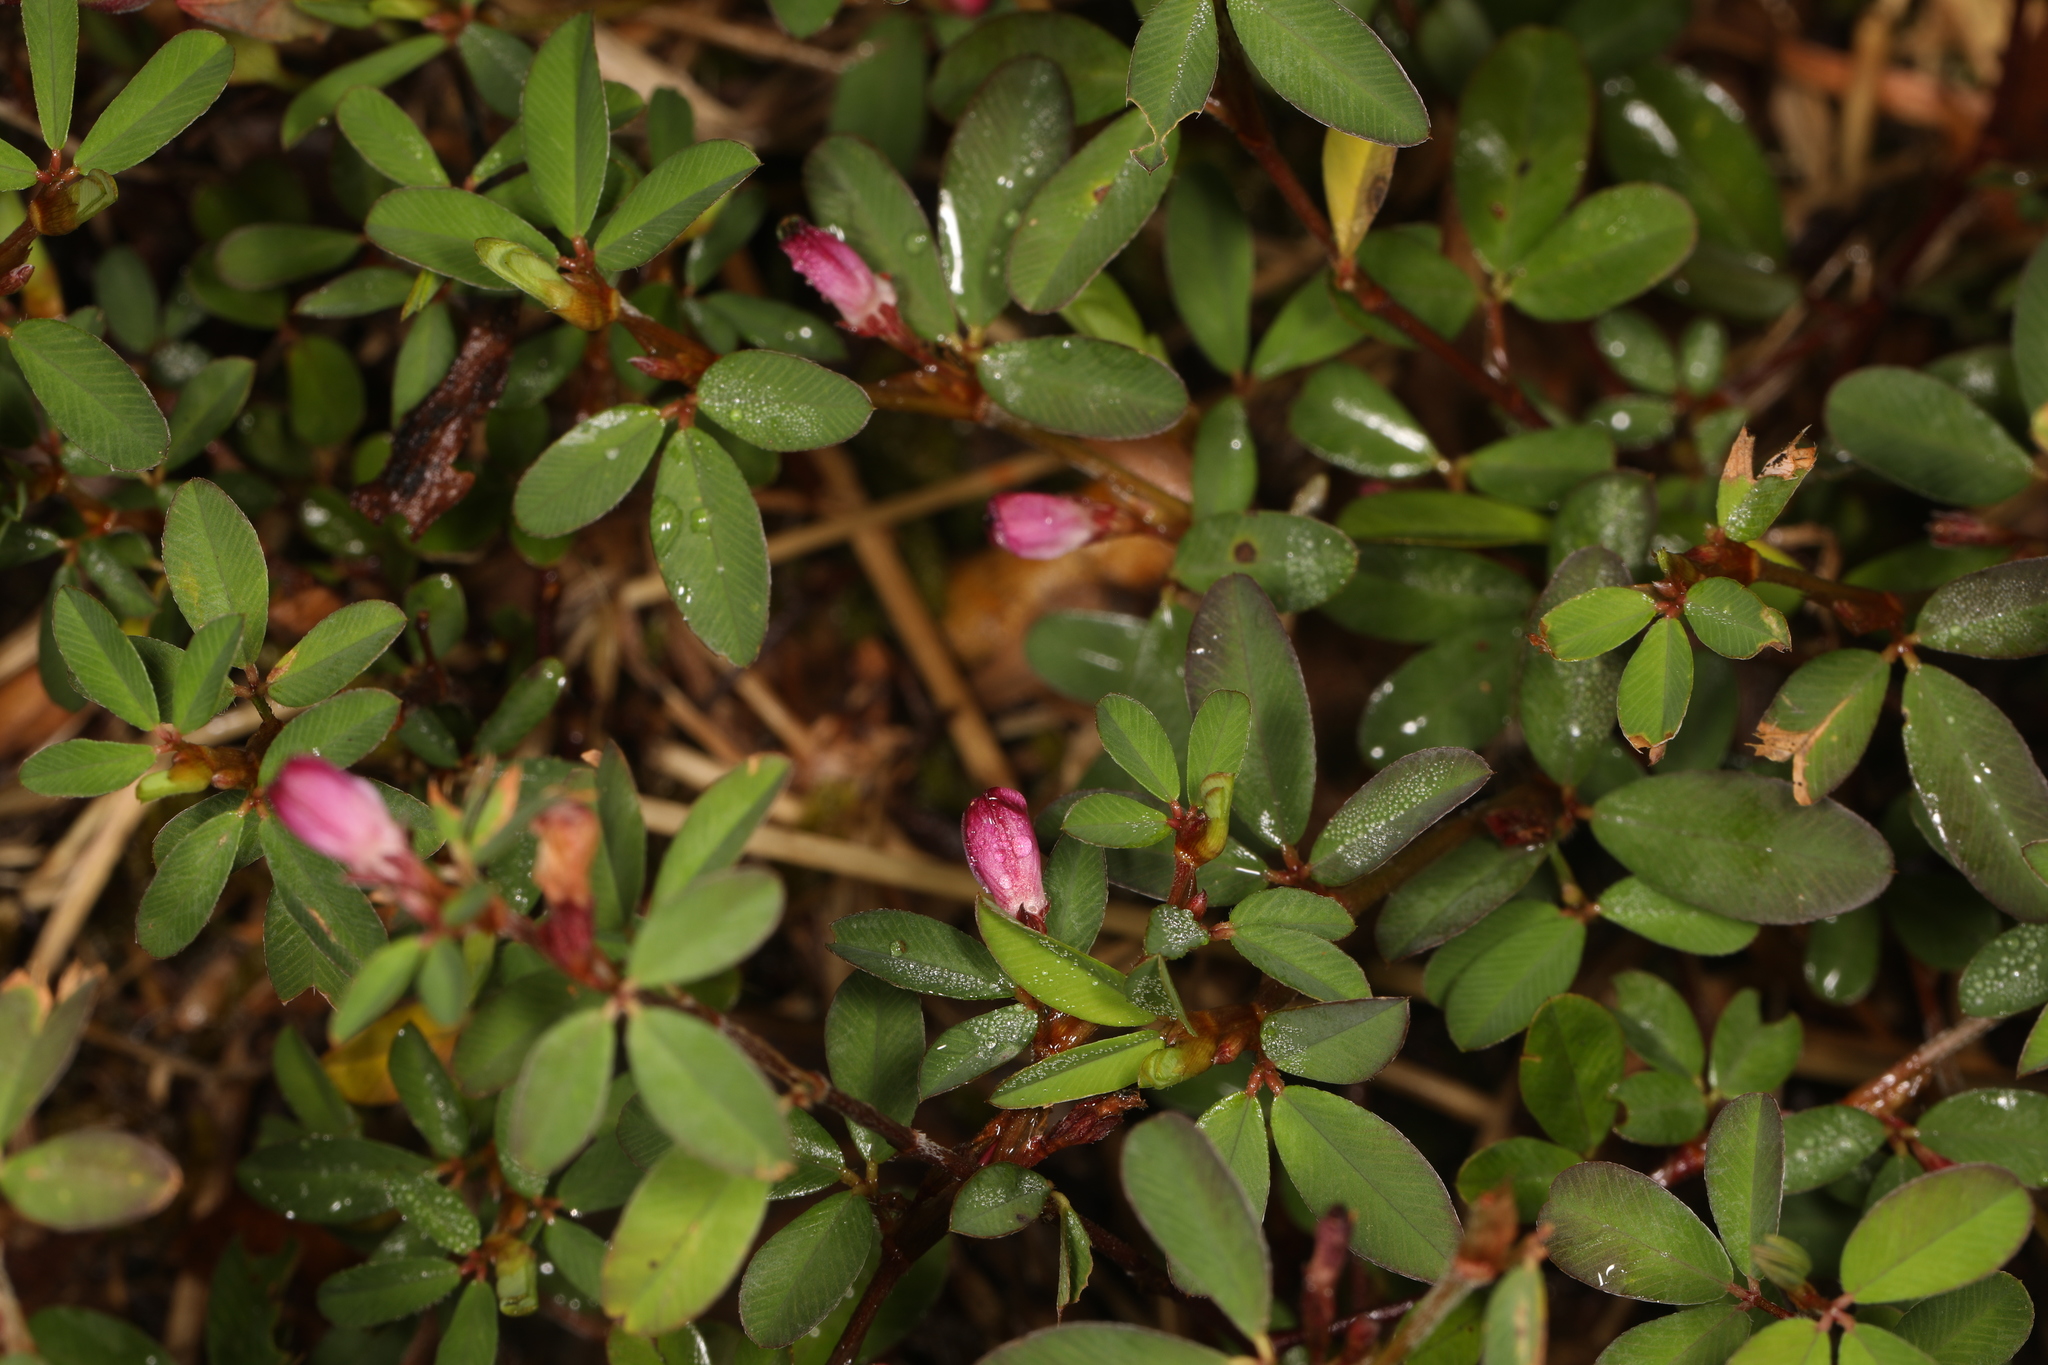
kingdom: Plantae
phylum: Tracheophyta
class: Magnoliopsida
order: Fabales
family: Fabaceae
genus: Kummerowia
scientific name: Kummerowia striata
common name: Japanese clover
